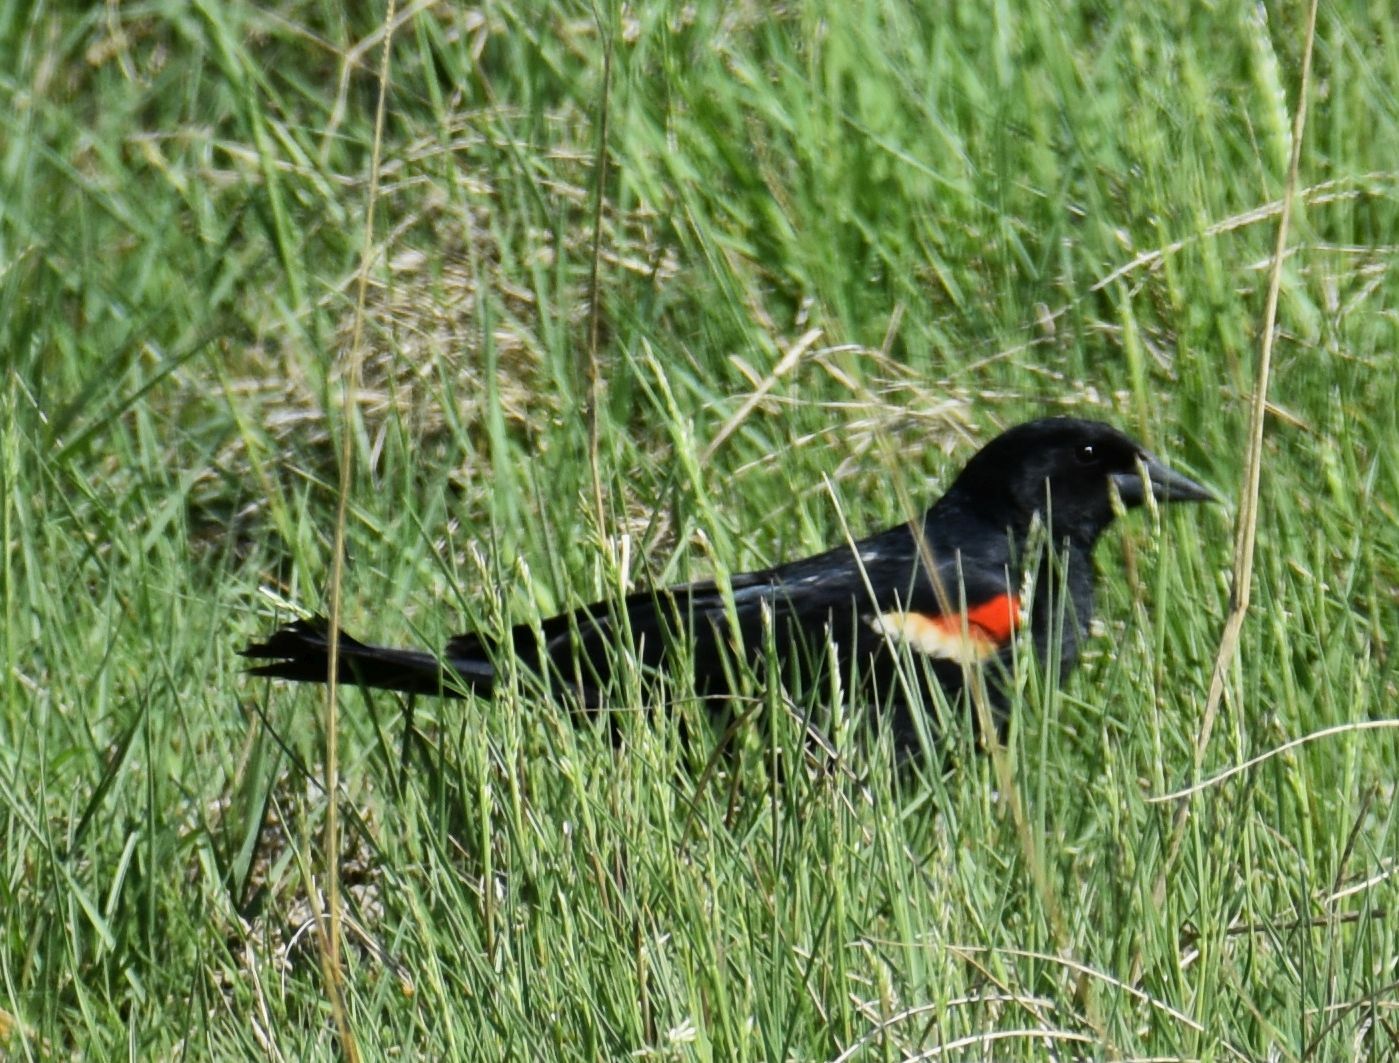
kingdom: Animalia
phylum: Chordata
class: Aves
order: Passeriformes
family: Icteridae
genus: Agelaius
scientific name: Agelaius phoeniceus
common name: Red-winged blackbird
